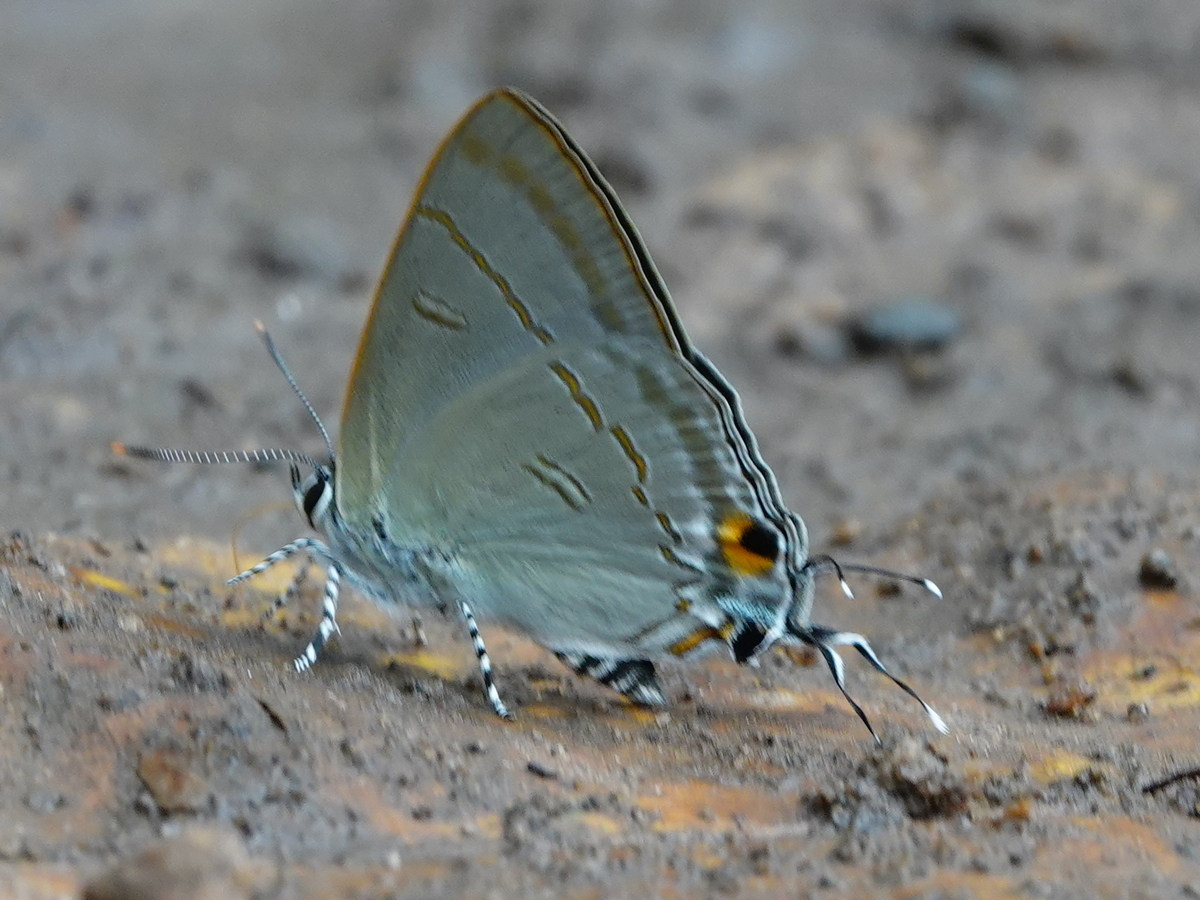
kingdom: Animalia
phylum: Arthropoda
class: Insecta
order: Lepidoptera
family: Lycaenidae
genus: Hypolycaena
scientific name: Hypolycaena erylus
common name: Common tit
